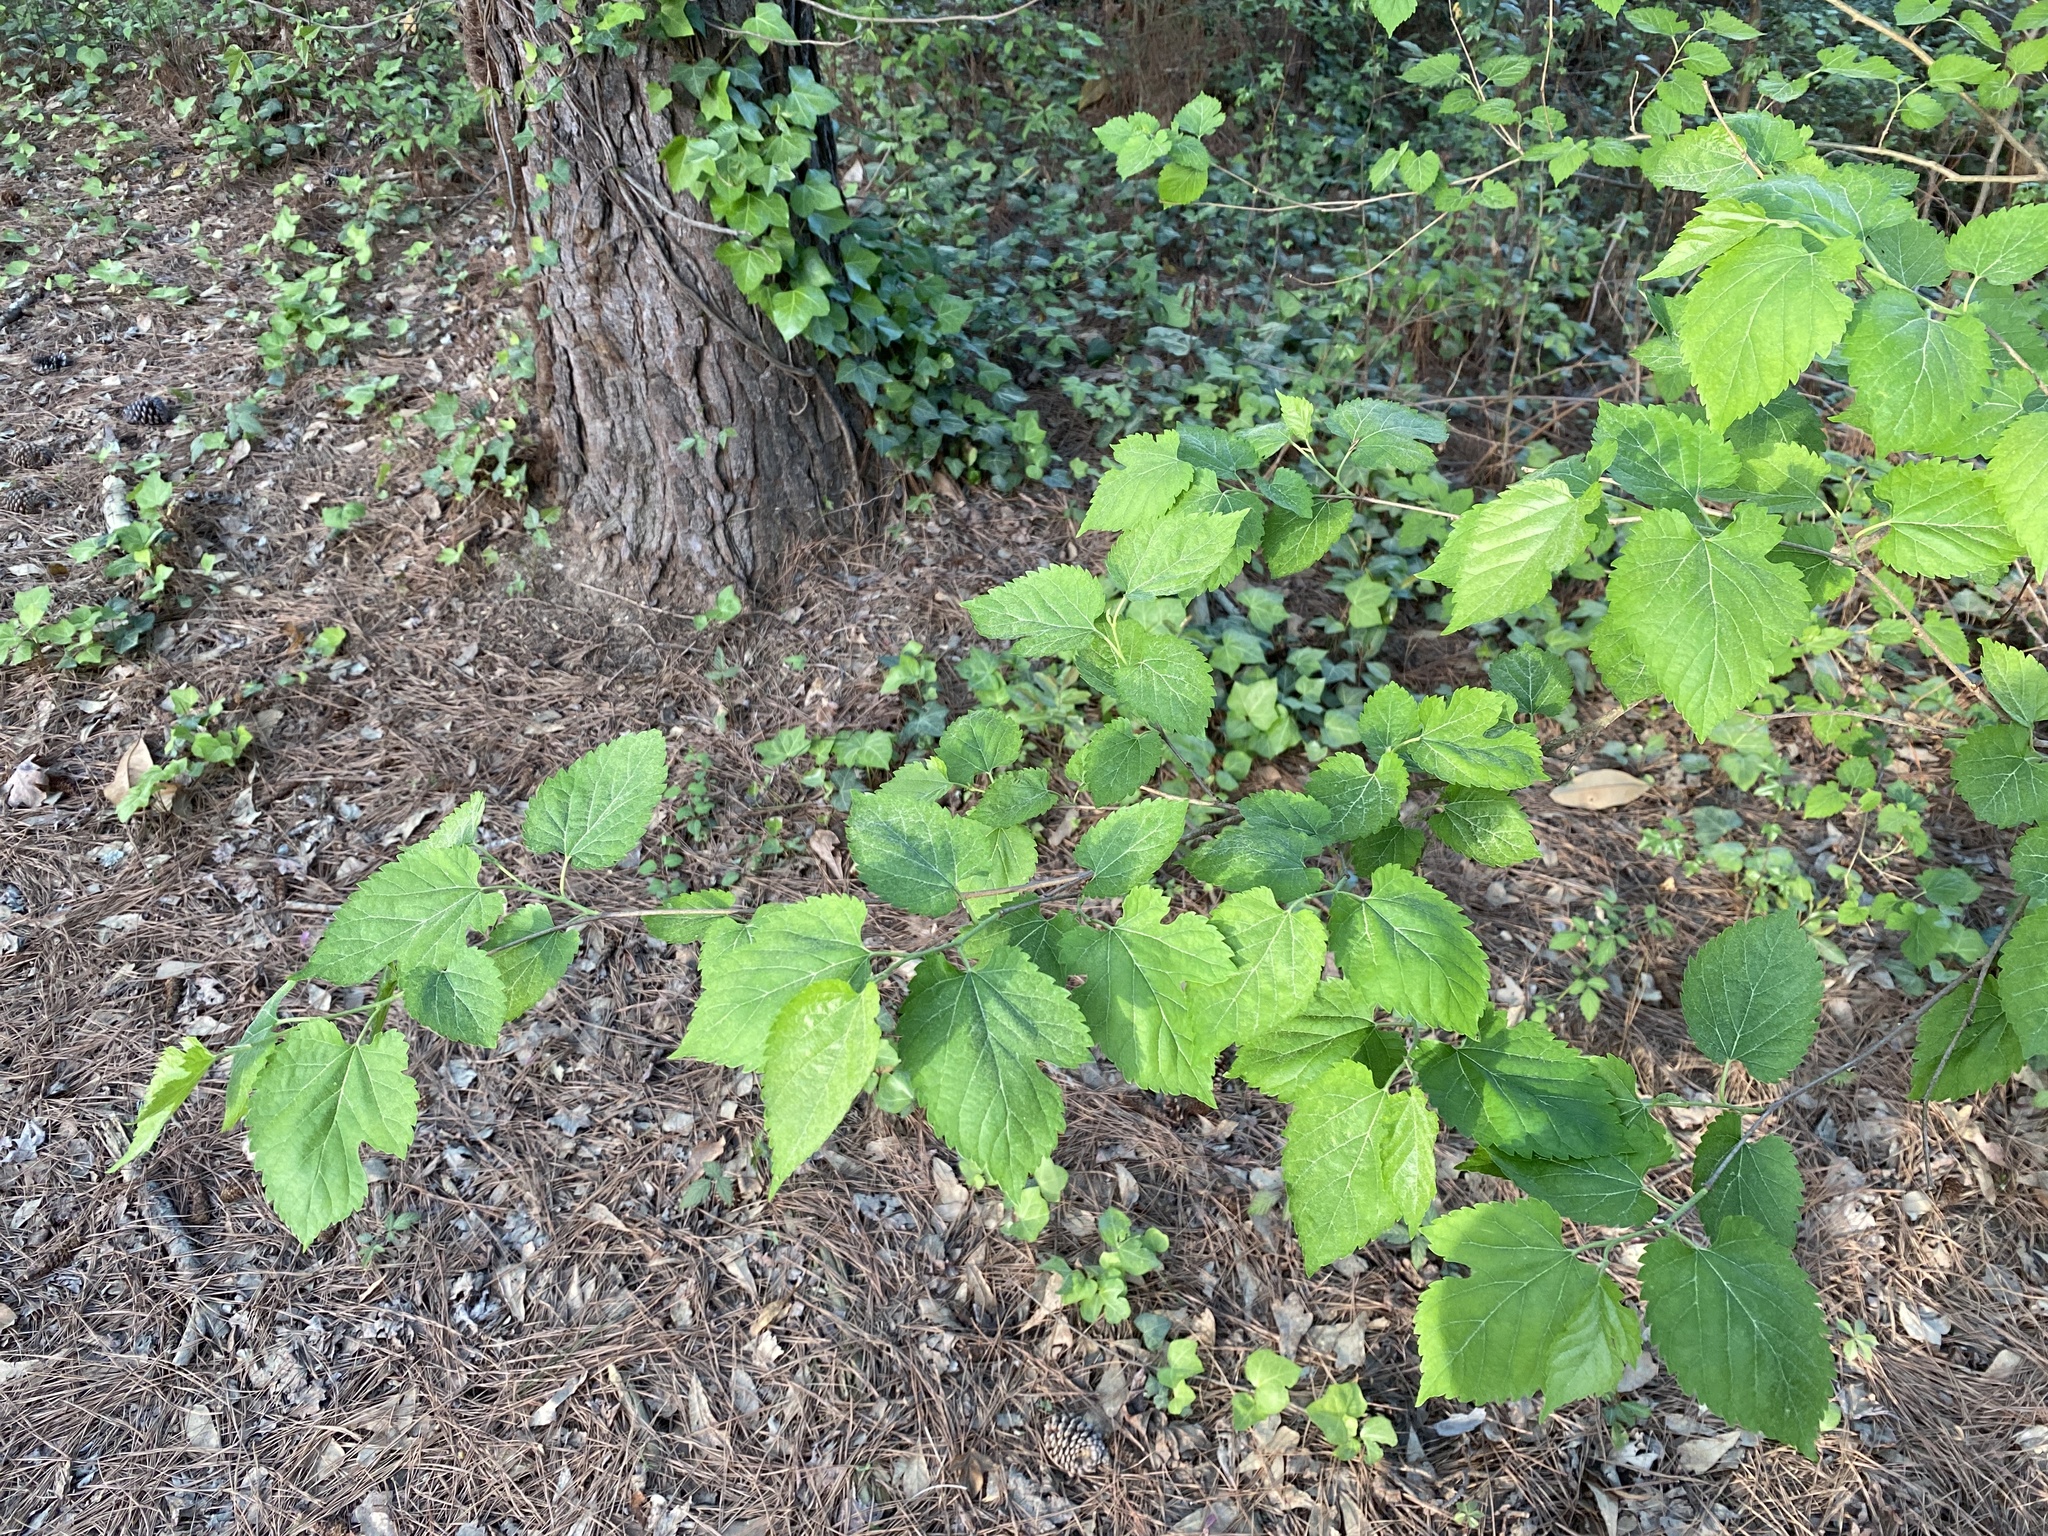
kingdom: Plantae
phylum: Tracheophyta
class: Magnoliopsida
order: Rosales
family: Moraceae
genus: Morus
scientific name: Morus alba
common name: White mulberry
